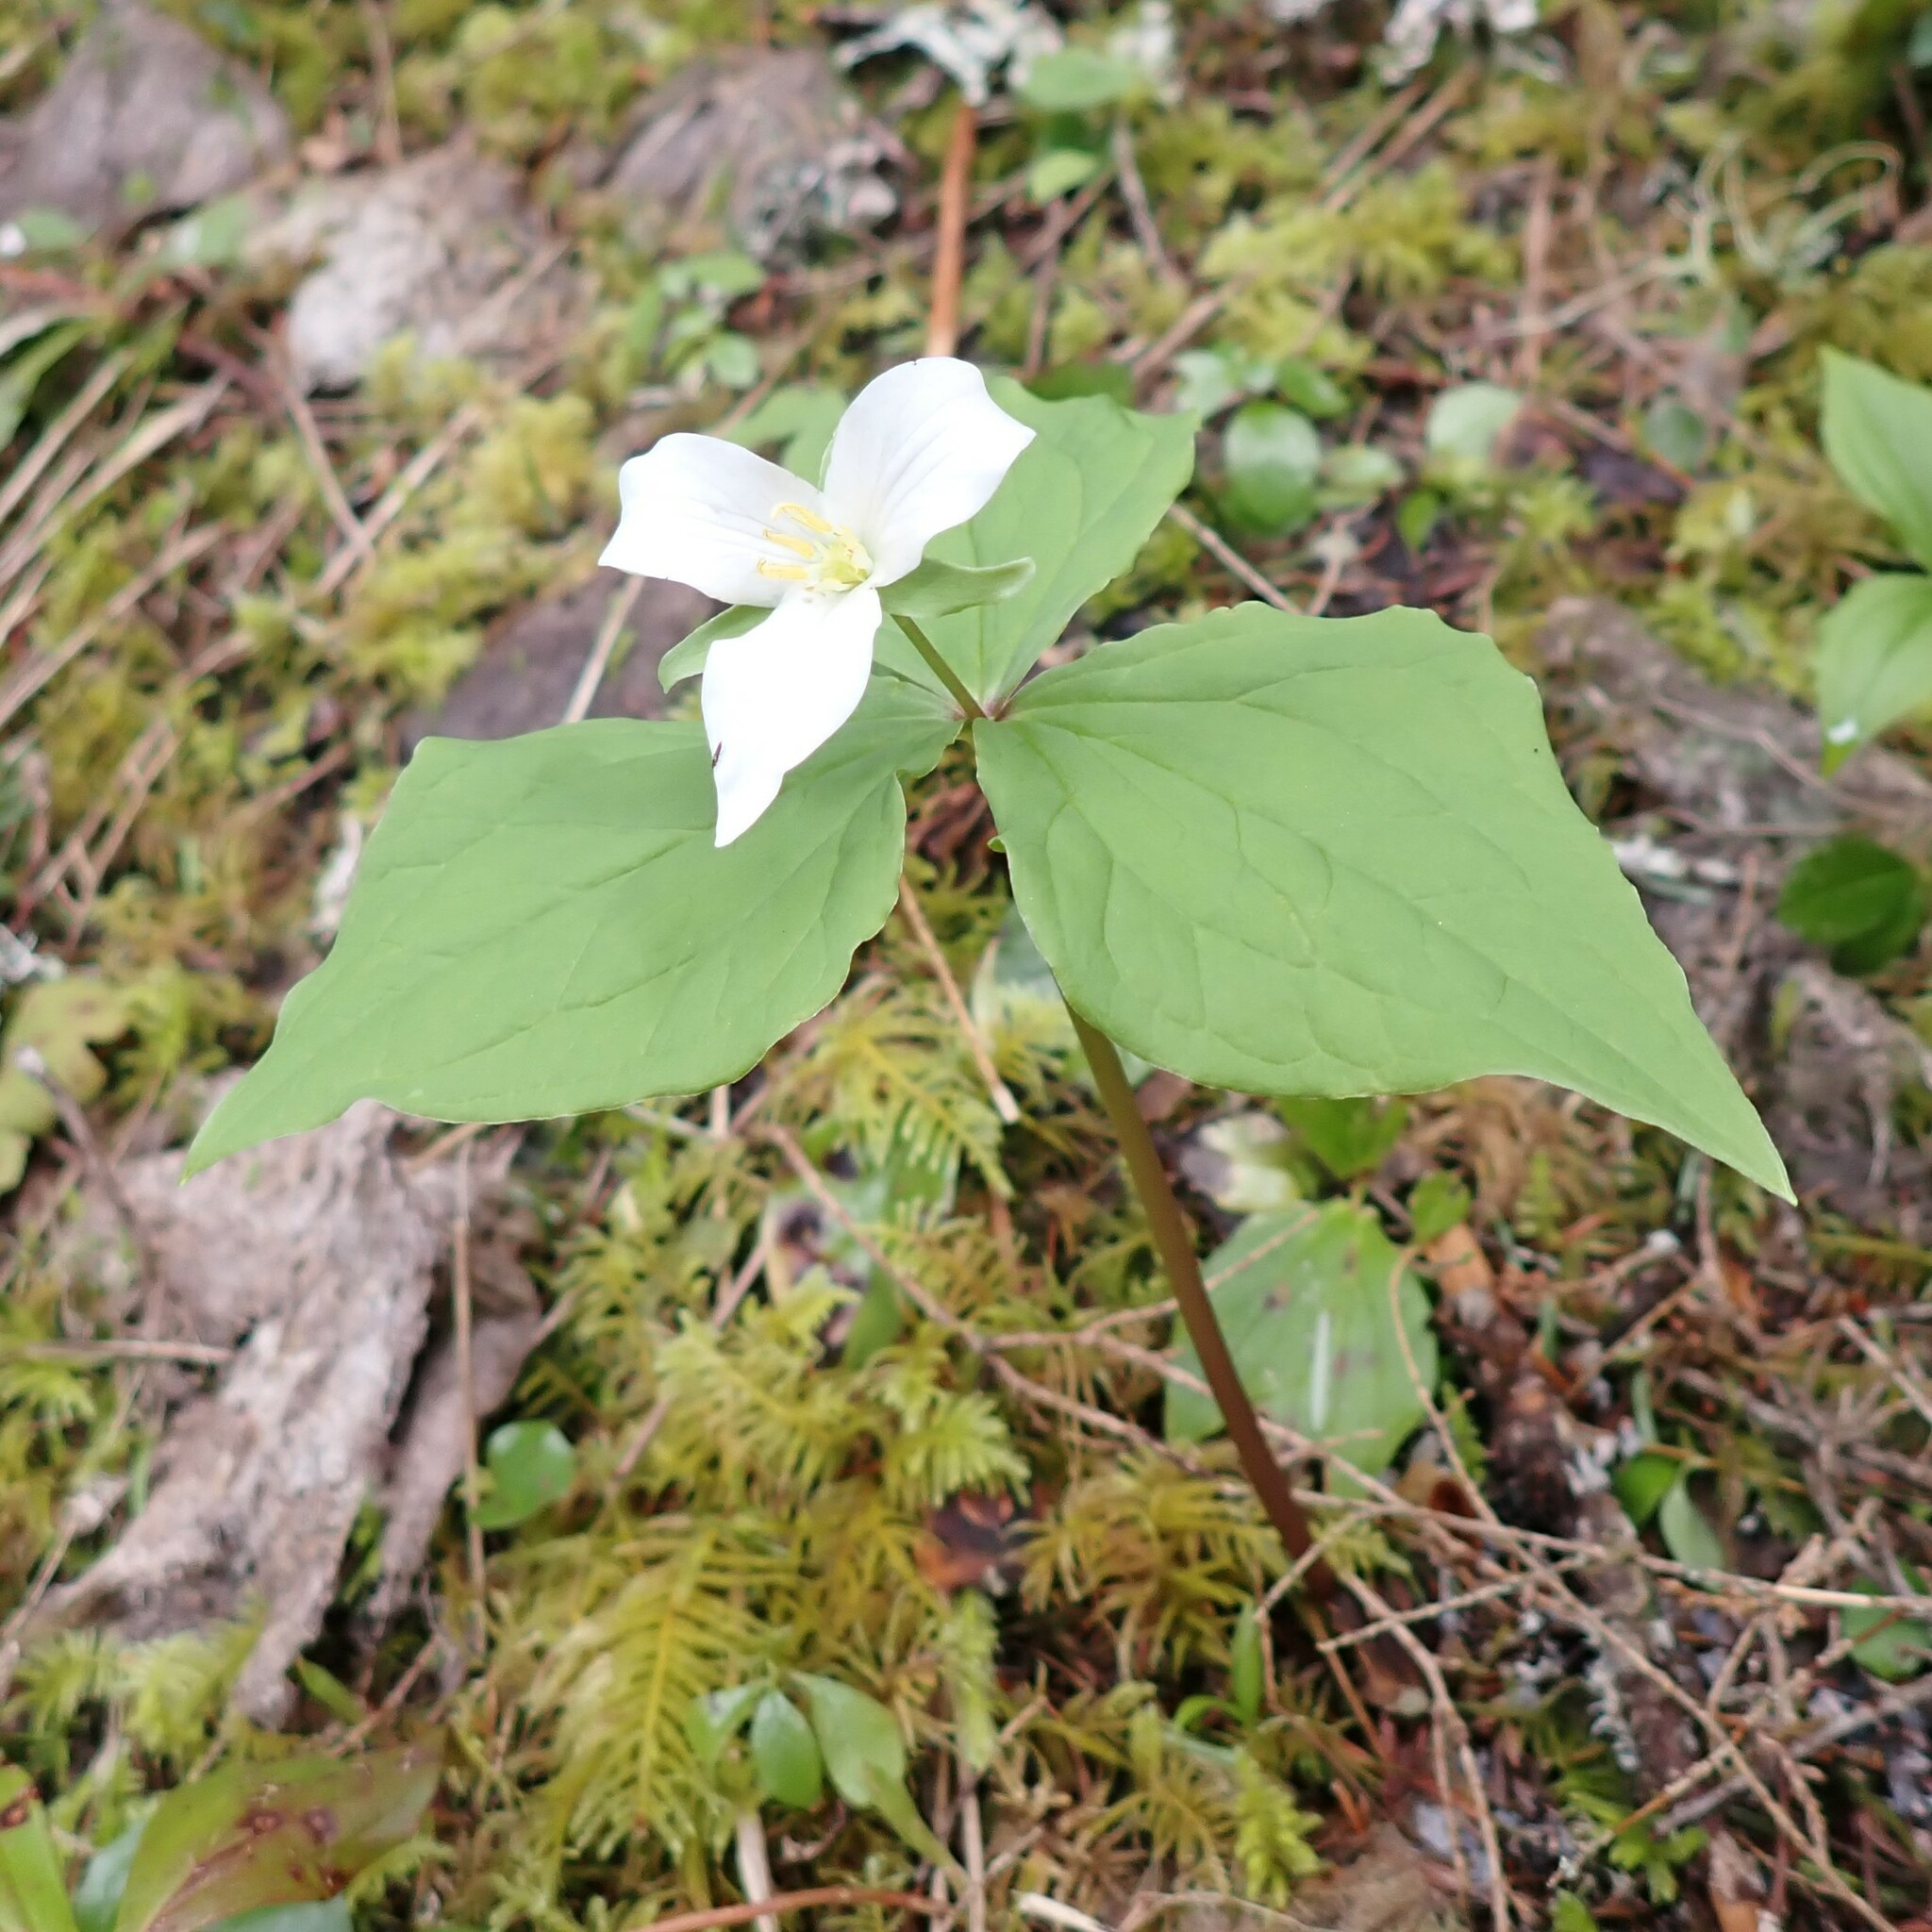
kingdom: Plantae
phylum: Tracheophyta
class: Liliopsida
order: Liliales
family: Melanthiaceae
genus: Trillium
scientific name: Trillium ovatum
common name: Pacific trillium
